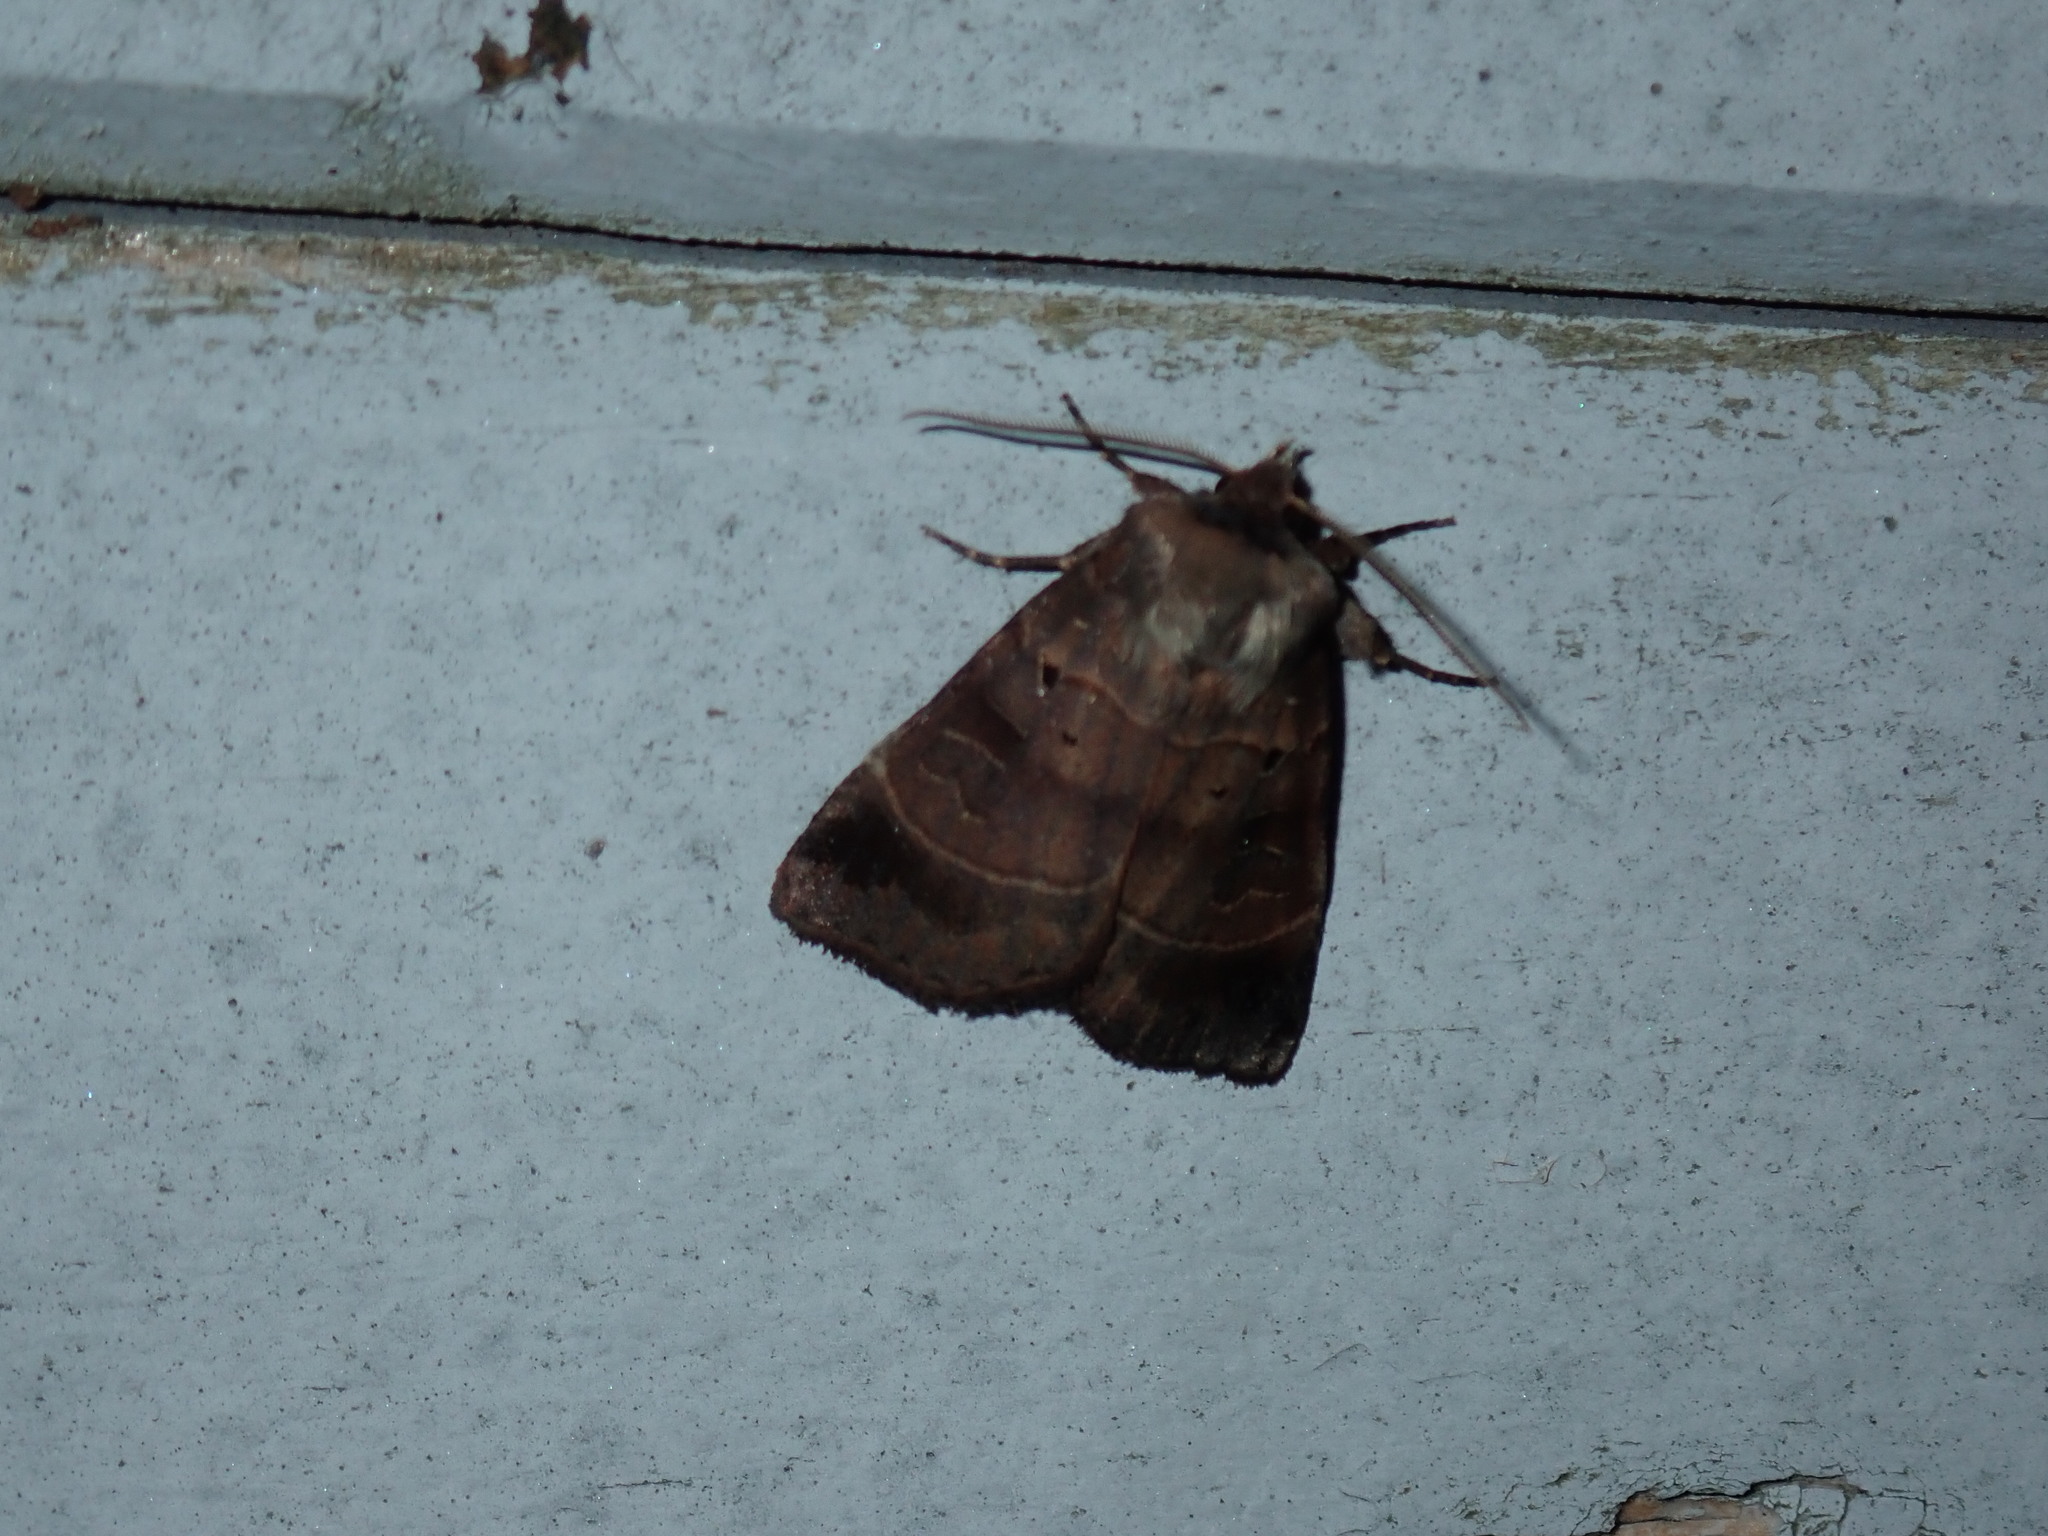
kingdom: Animalia
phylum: Arthropoda
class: Insecta
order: Lepidoptera
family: Noctuidae
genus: Agnorisma
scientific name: Agnorisma badinodis
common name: Pale-banded dart
